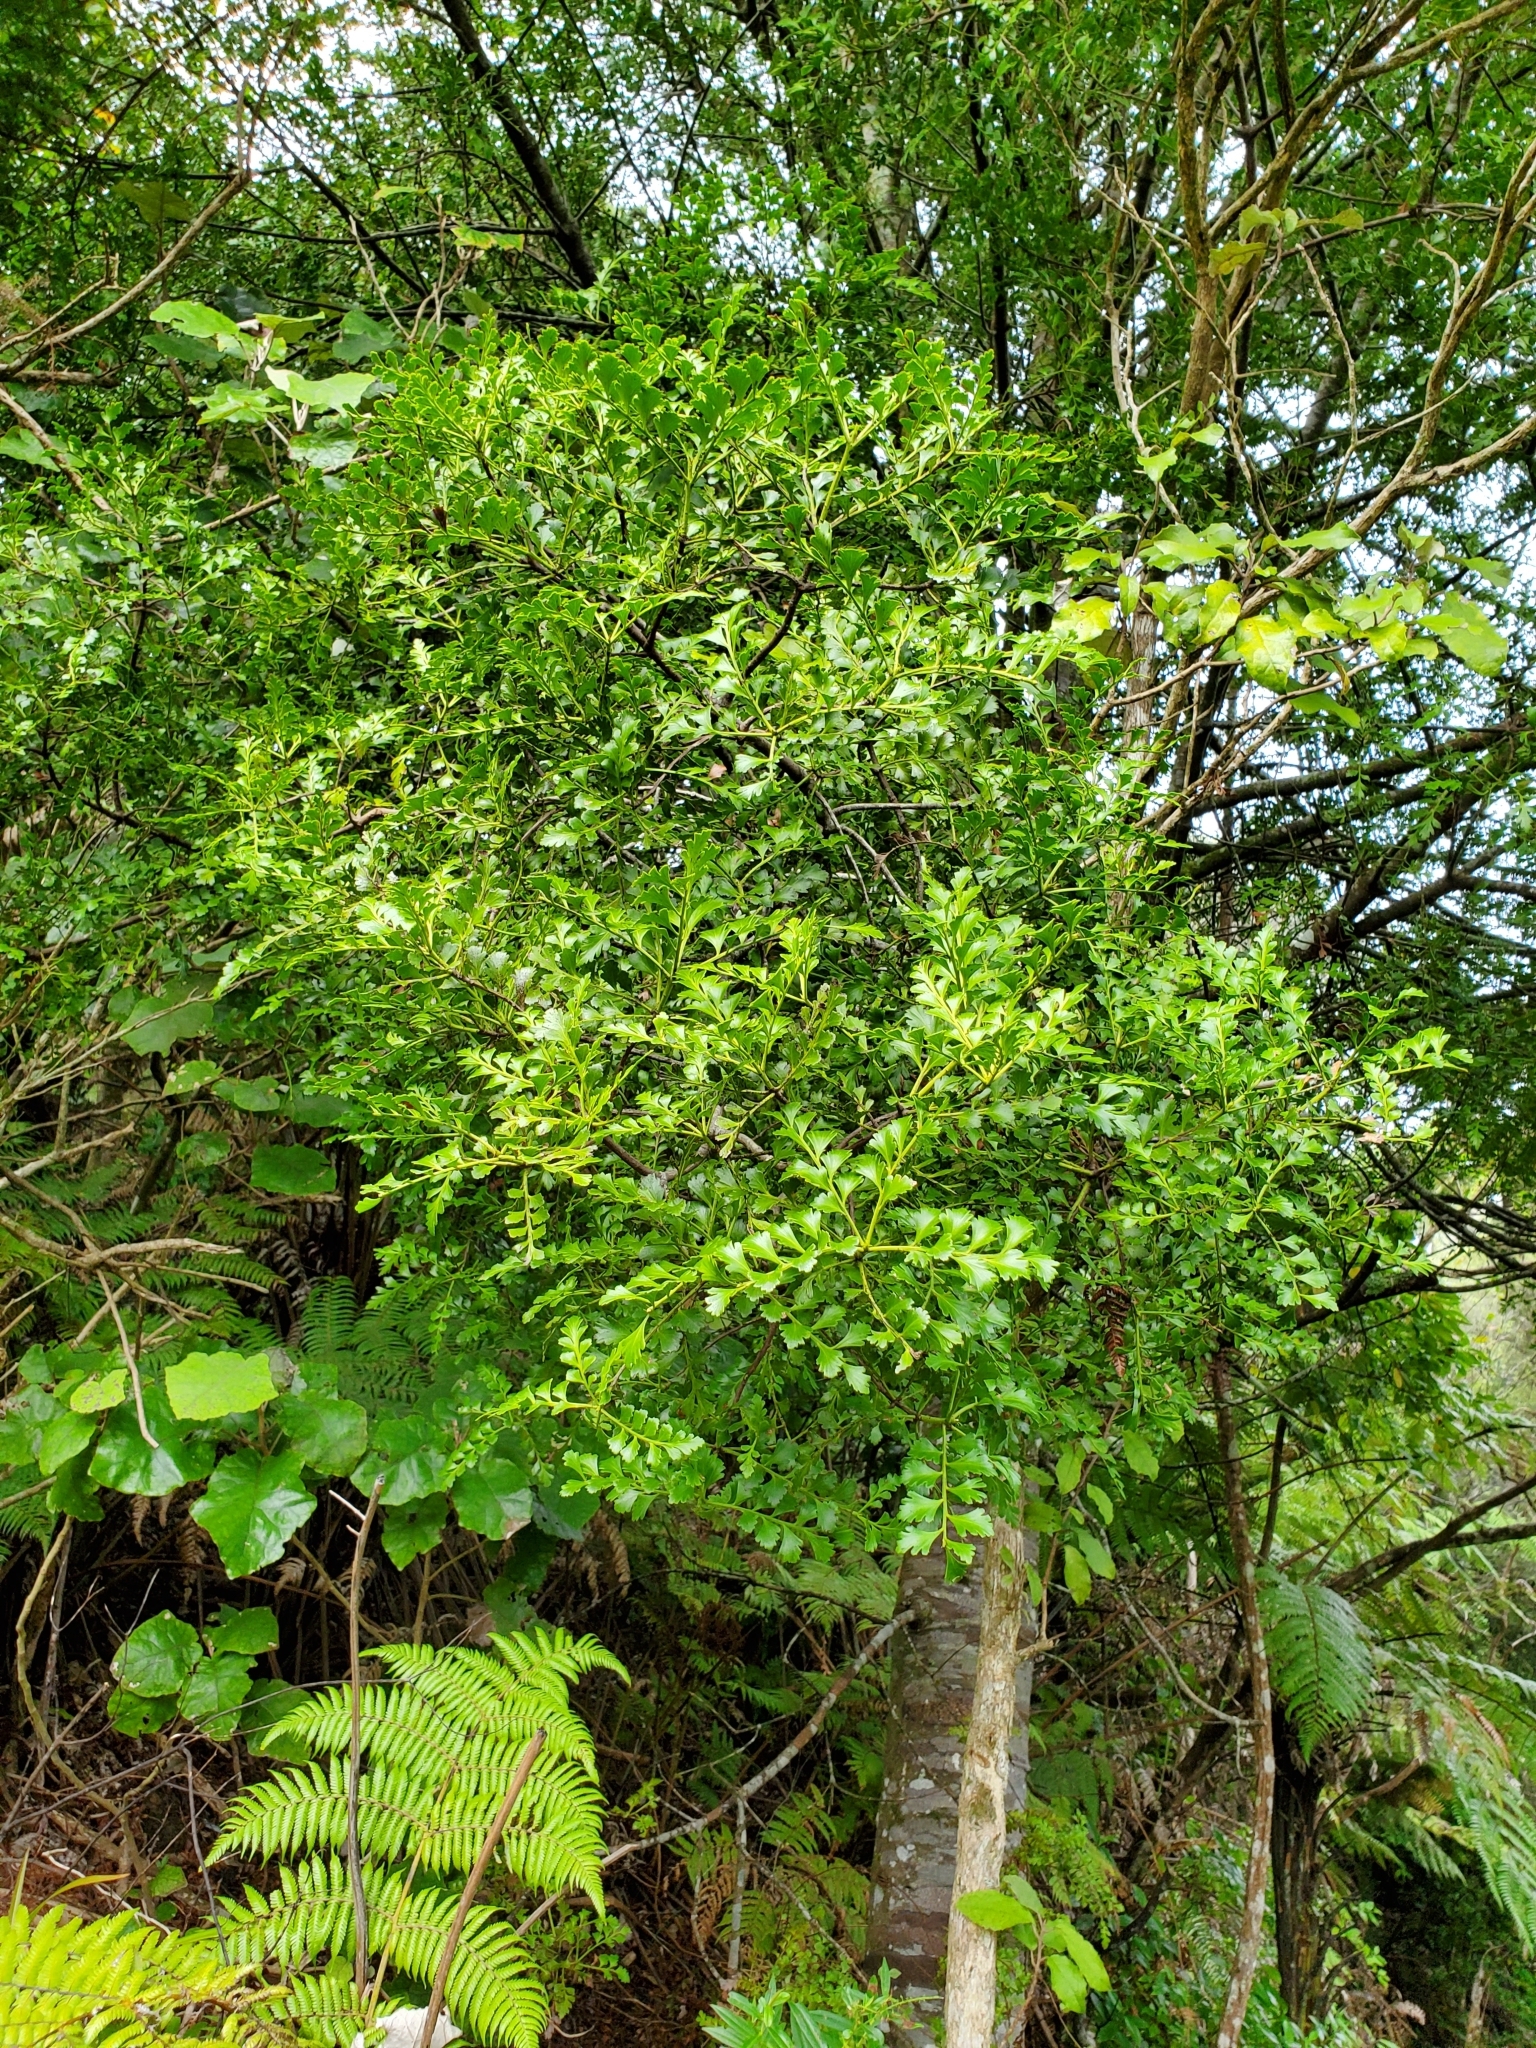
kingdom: Plantae
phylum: Tracheophyta
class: Pinopsida
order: Pinales
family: Phyllocladaceae
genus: Phyllocladus
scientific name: Phyllocladus trichomanoides
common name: Celery pine
